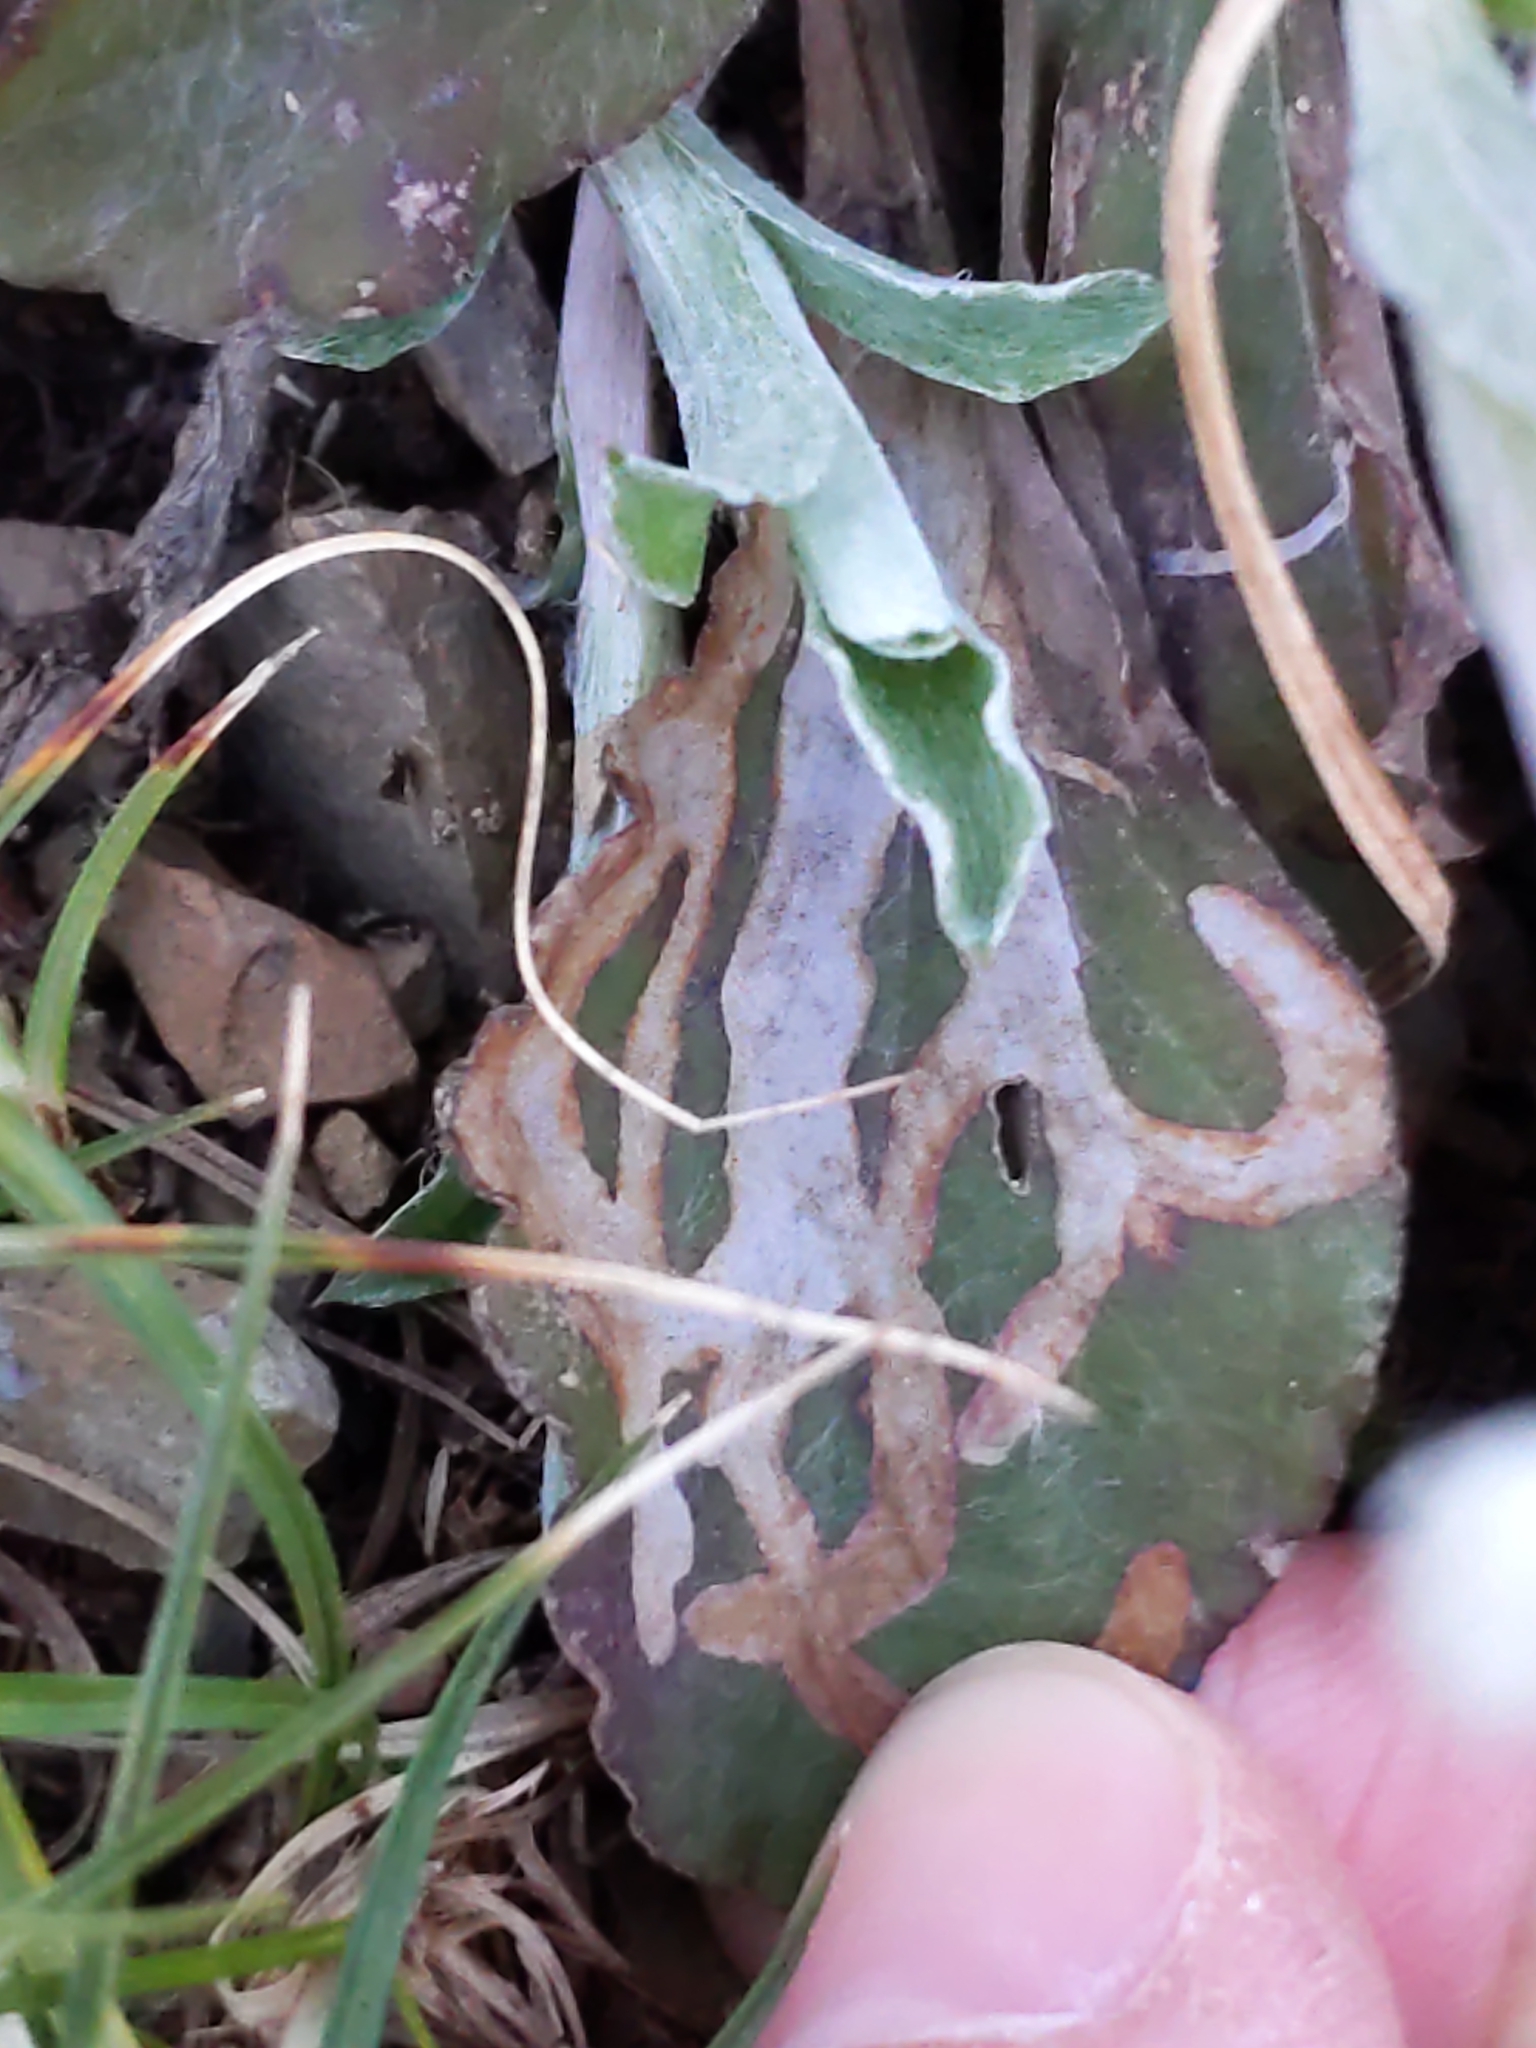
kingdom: Animalia
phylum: Arthropoda
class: Insecta
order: Diptera
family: Agromyzidae
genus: Ophiomyia
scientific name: Ophiomyia coniceps
